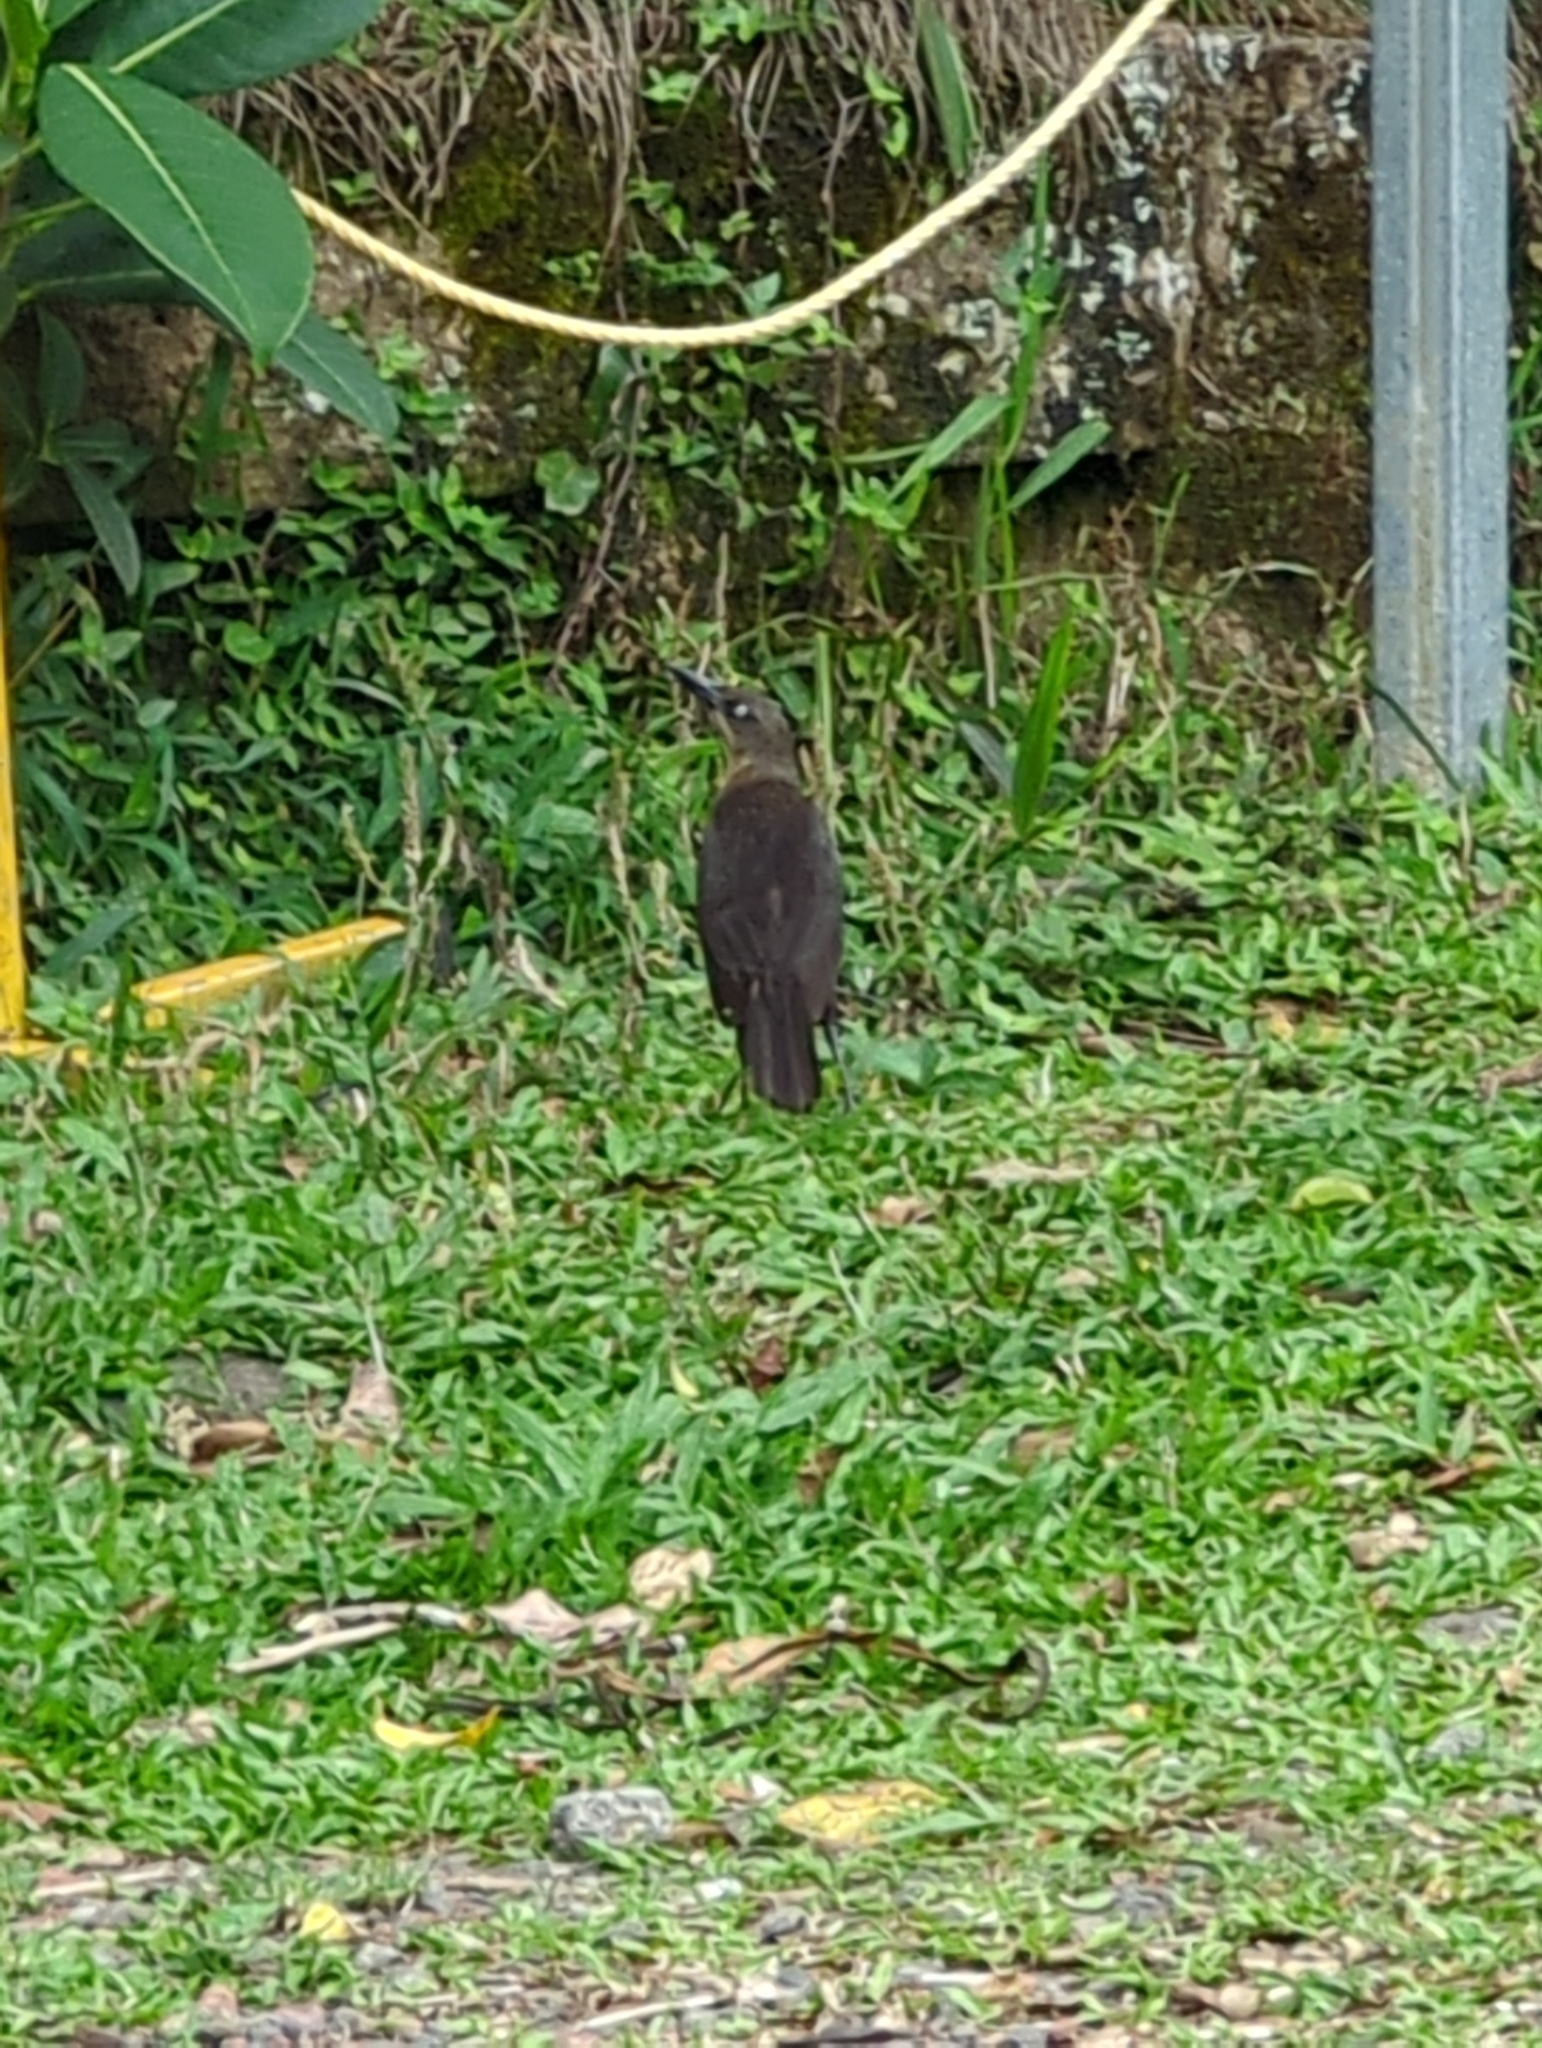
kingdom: Animalia
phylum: Chordata
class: Aves
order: Passeriformes
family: Icteridae
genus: Quiscalus
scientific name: Quiscalus mexicanus
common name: Great-tailed grackle
